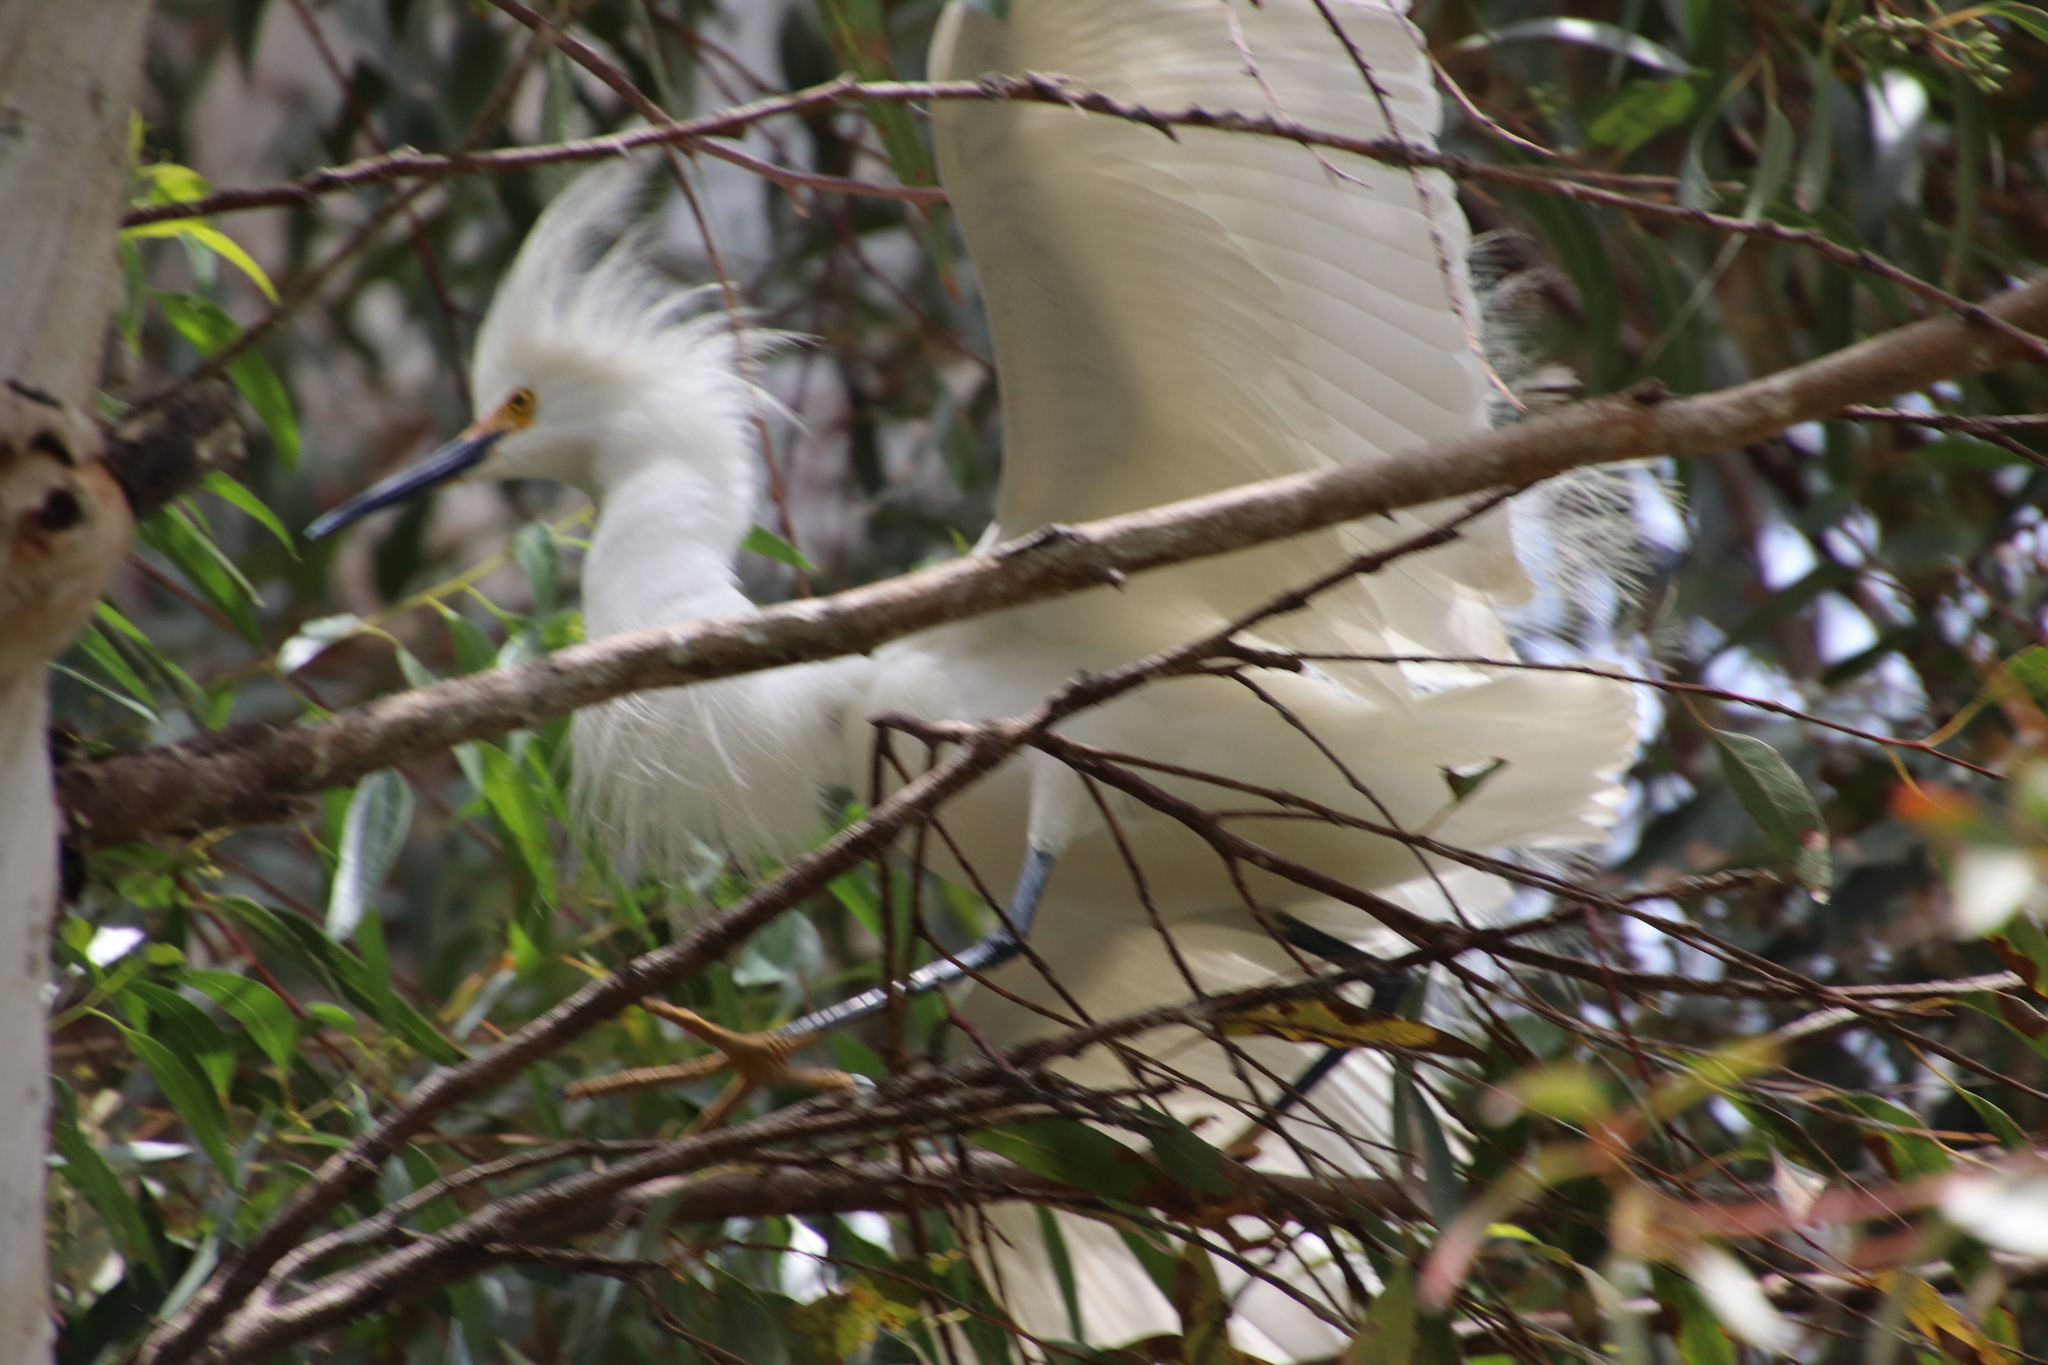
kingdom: Animalia
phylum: Chordata
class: Aves
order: Pelecaniformes
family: Ardeidae
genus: Egretta
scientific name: Egretta thula
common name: Snowy egret
